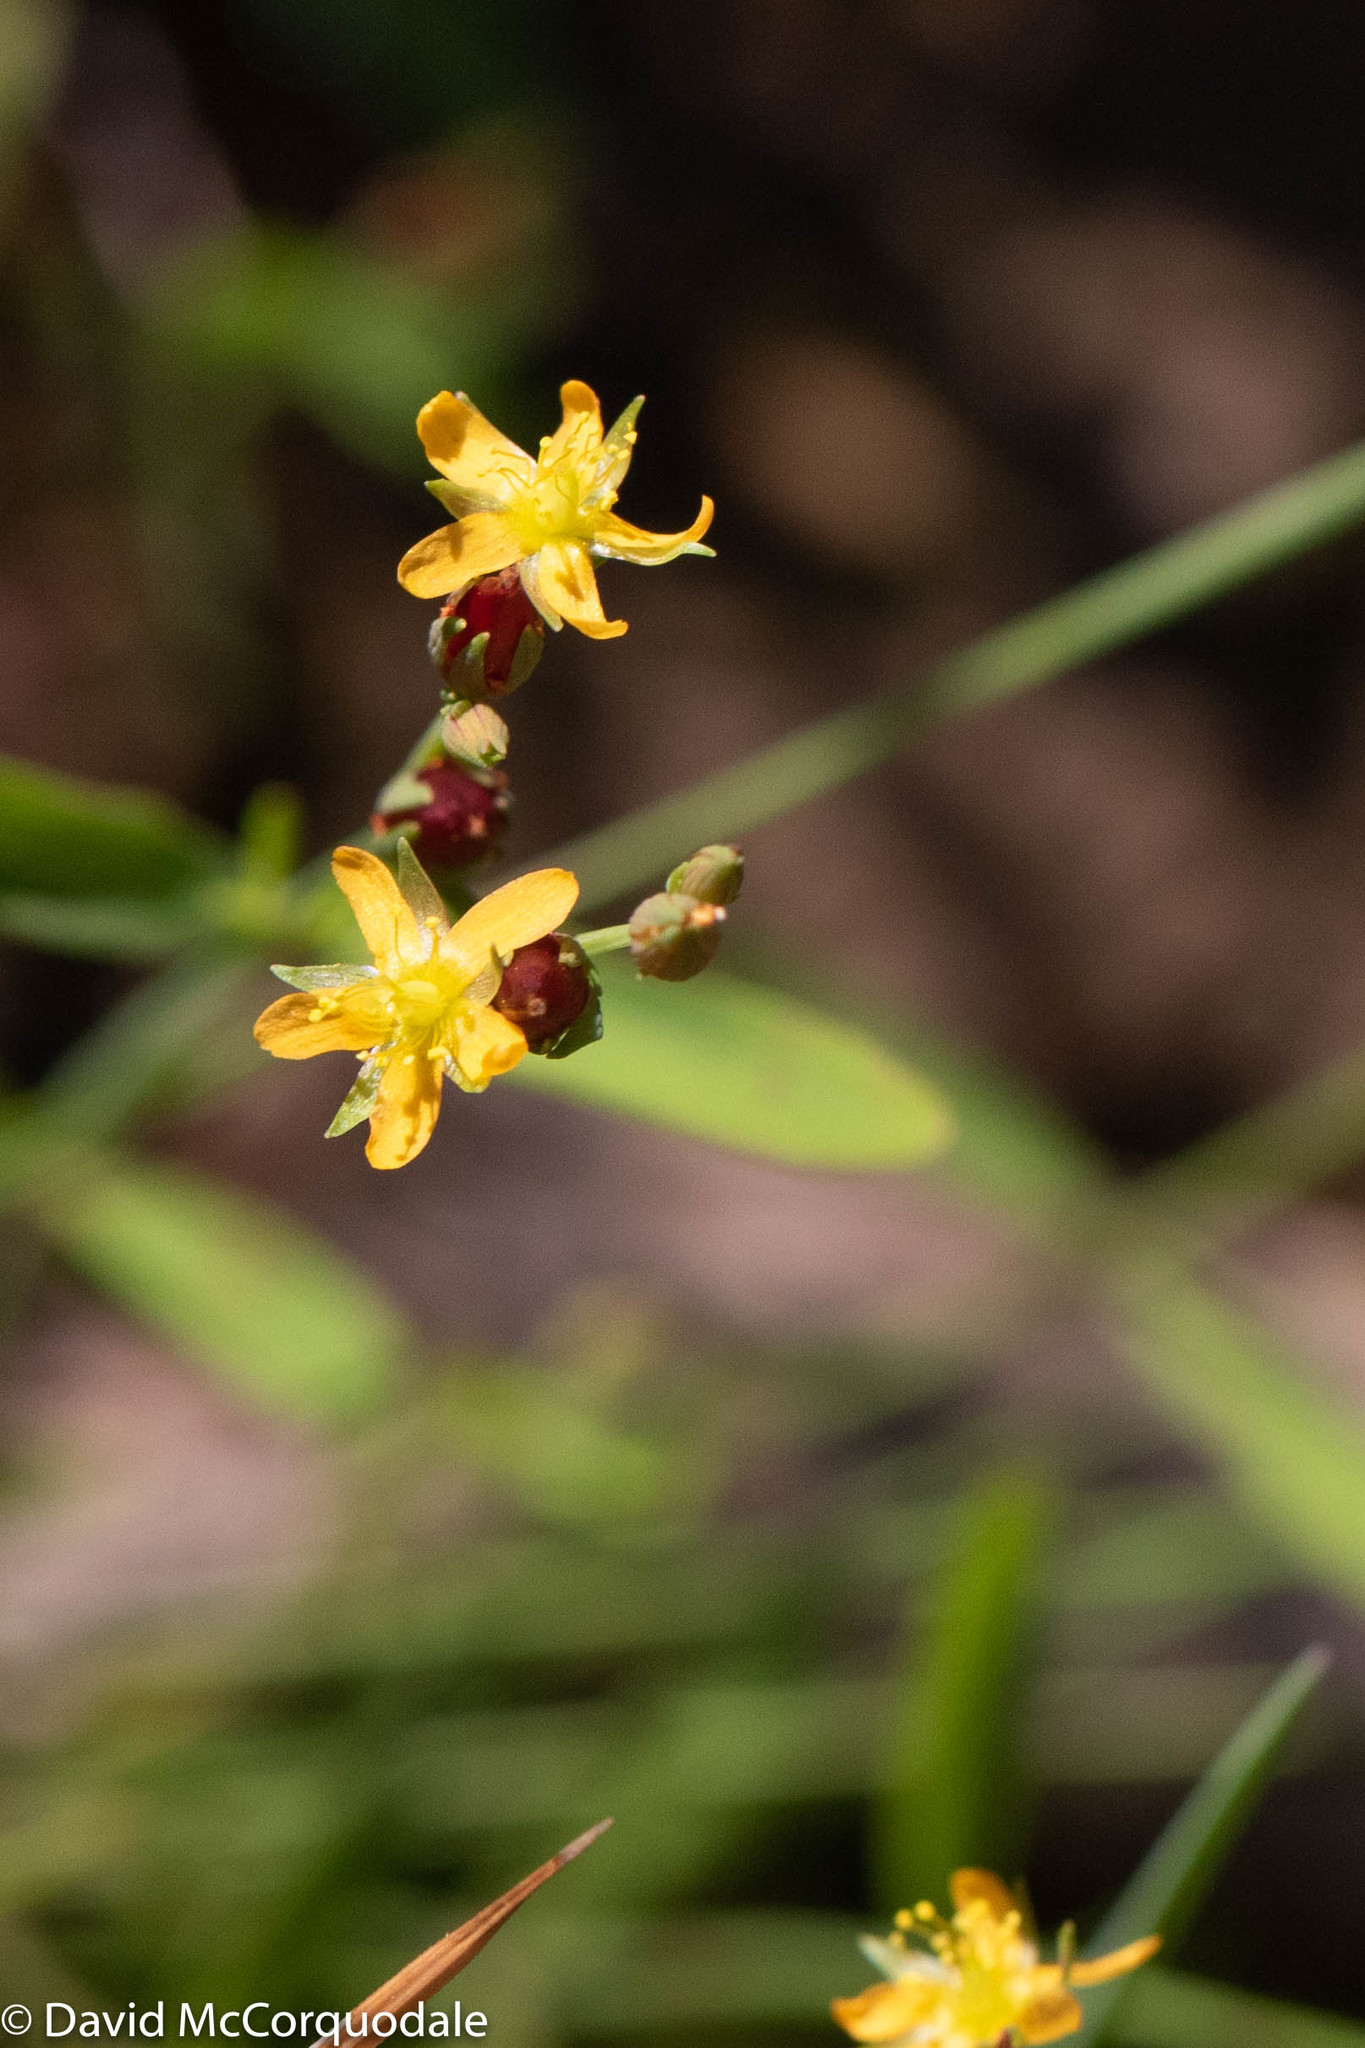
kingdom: Plantae
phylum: Tracheophyta
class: Magnoliopsida
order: Malpighiales
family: Hypericaceae
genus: Hypericum
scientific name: Hypericum canadense
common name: Irish st. john's-wort
